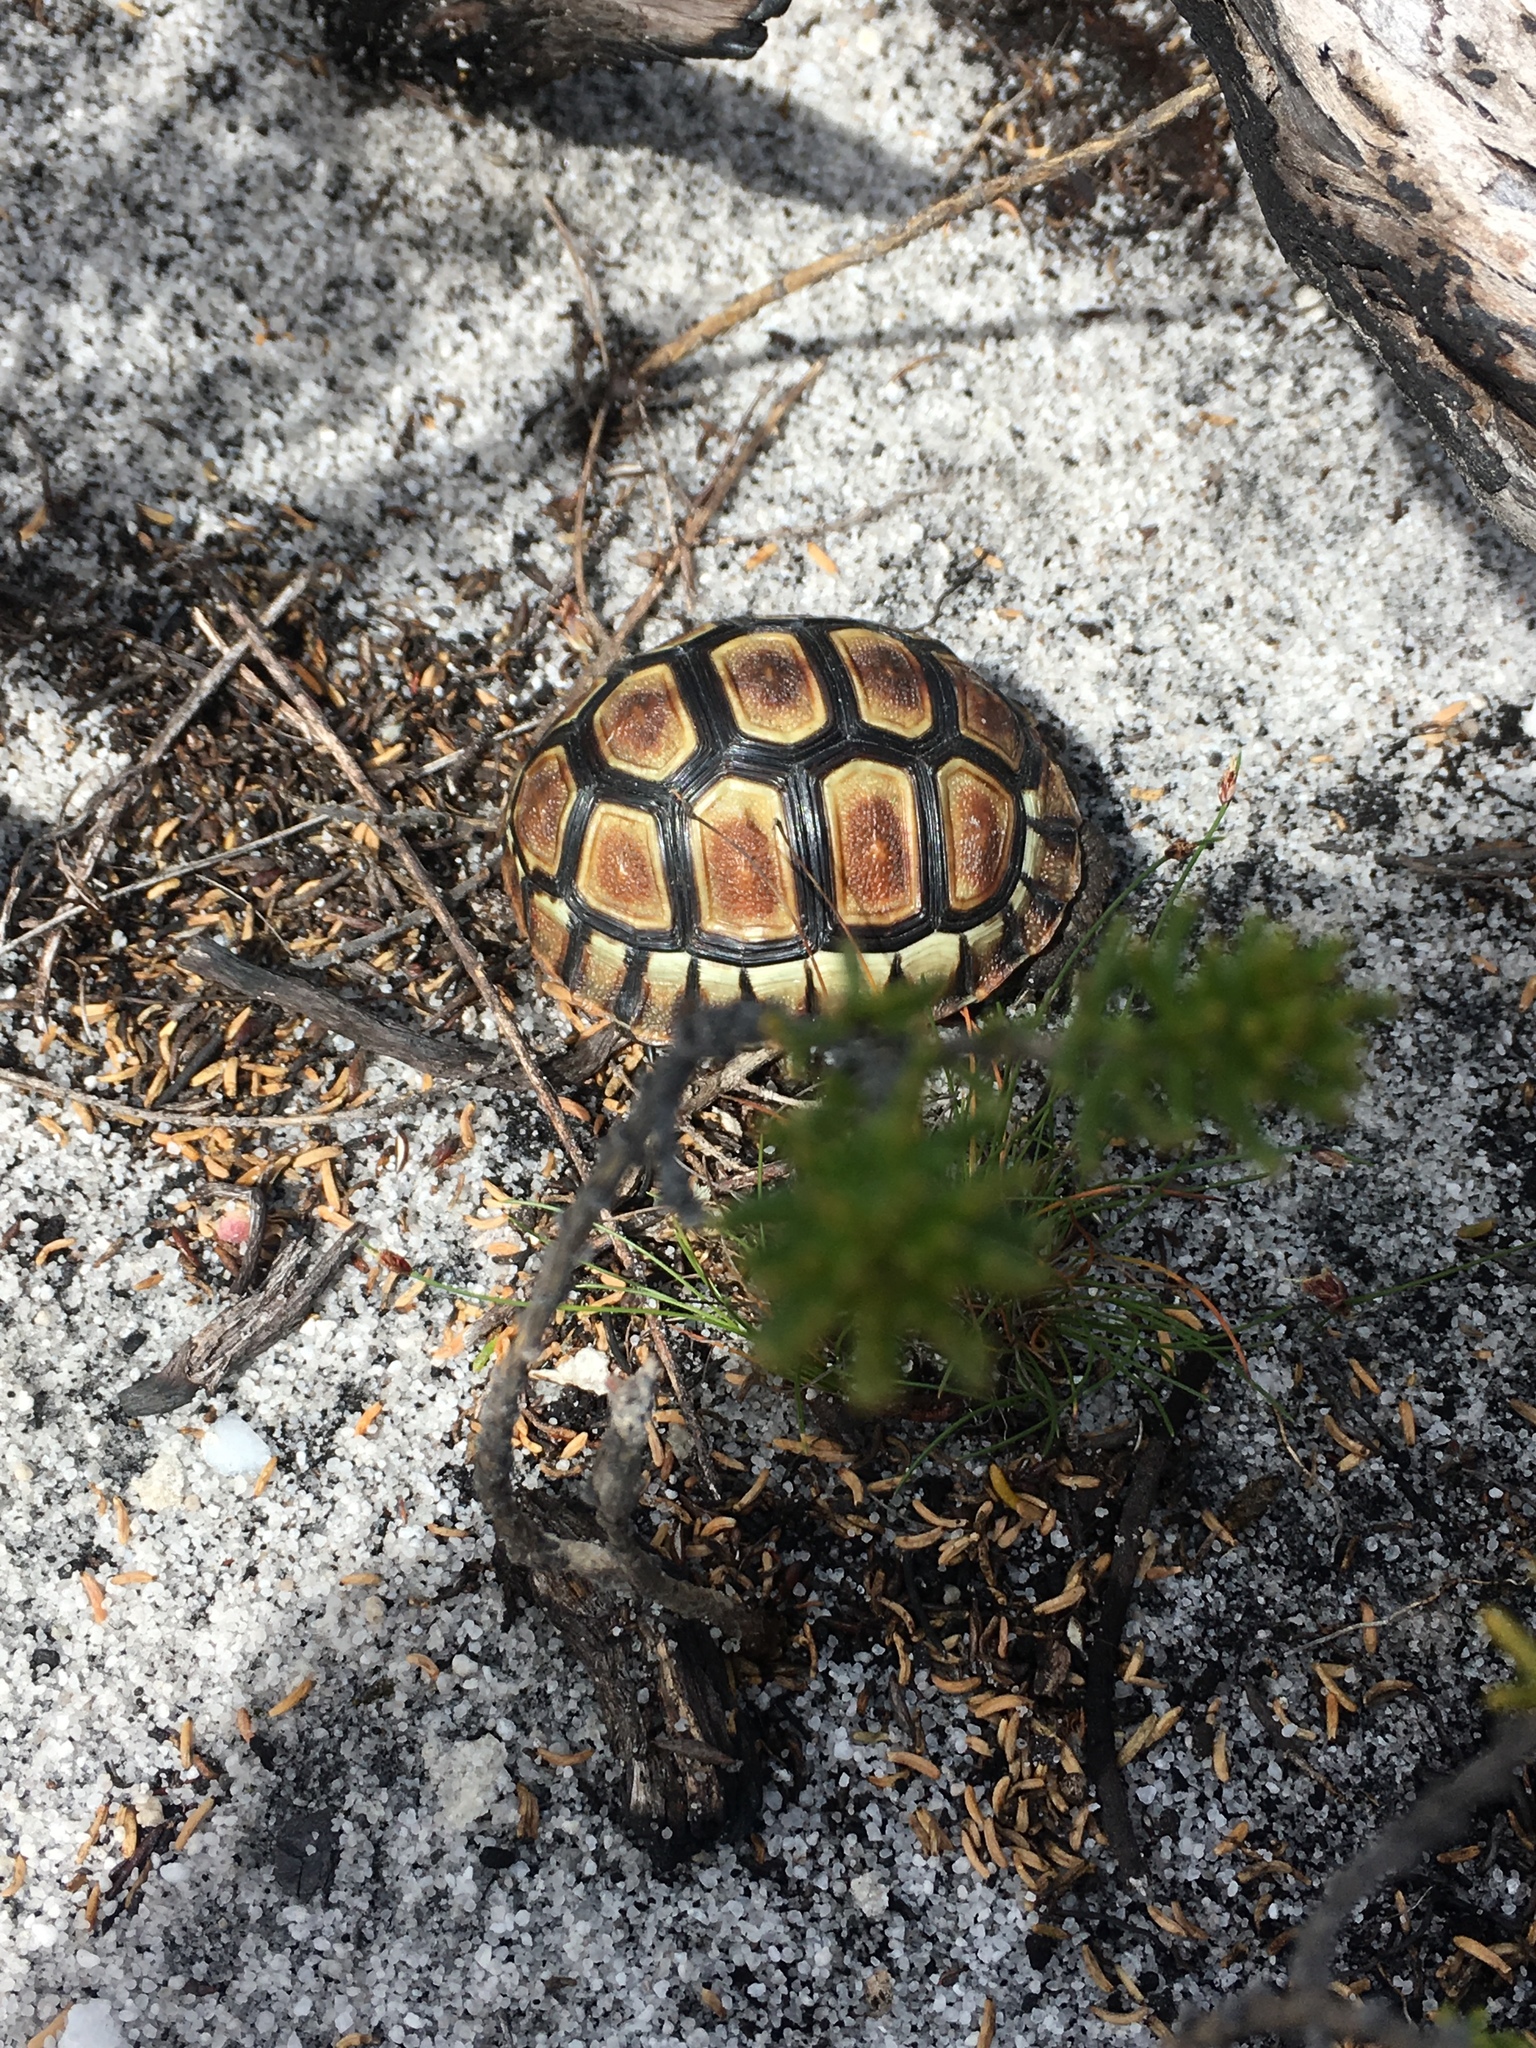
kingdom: Animalia
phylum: Chordata
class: Testudines
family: Testudinidae
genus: Chersina
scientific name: Chersina angulata
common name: South african bowsprit tortoise
